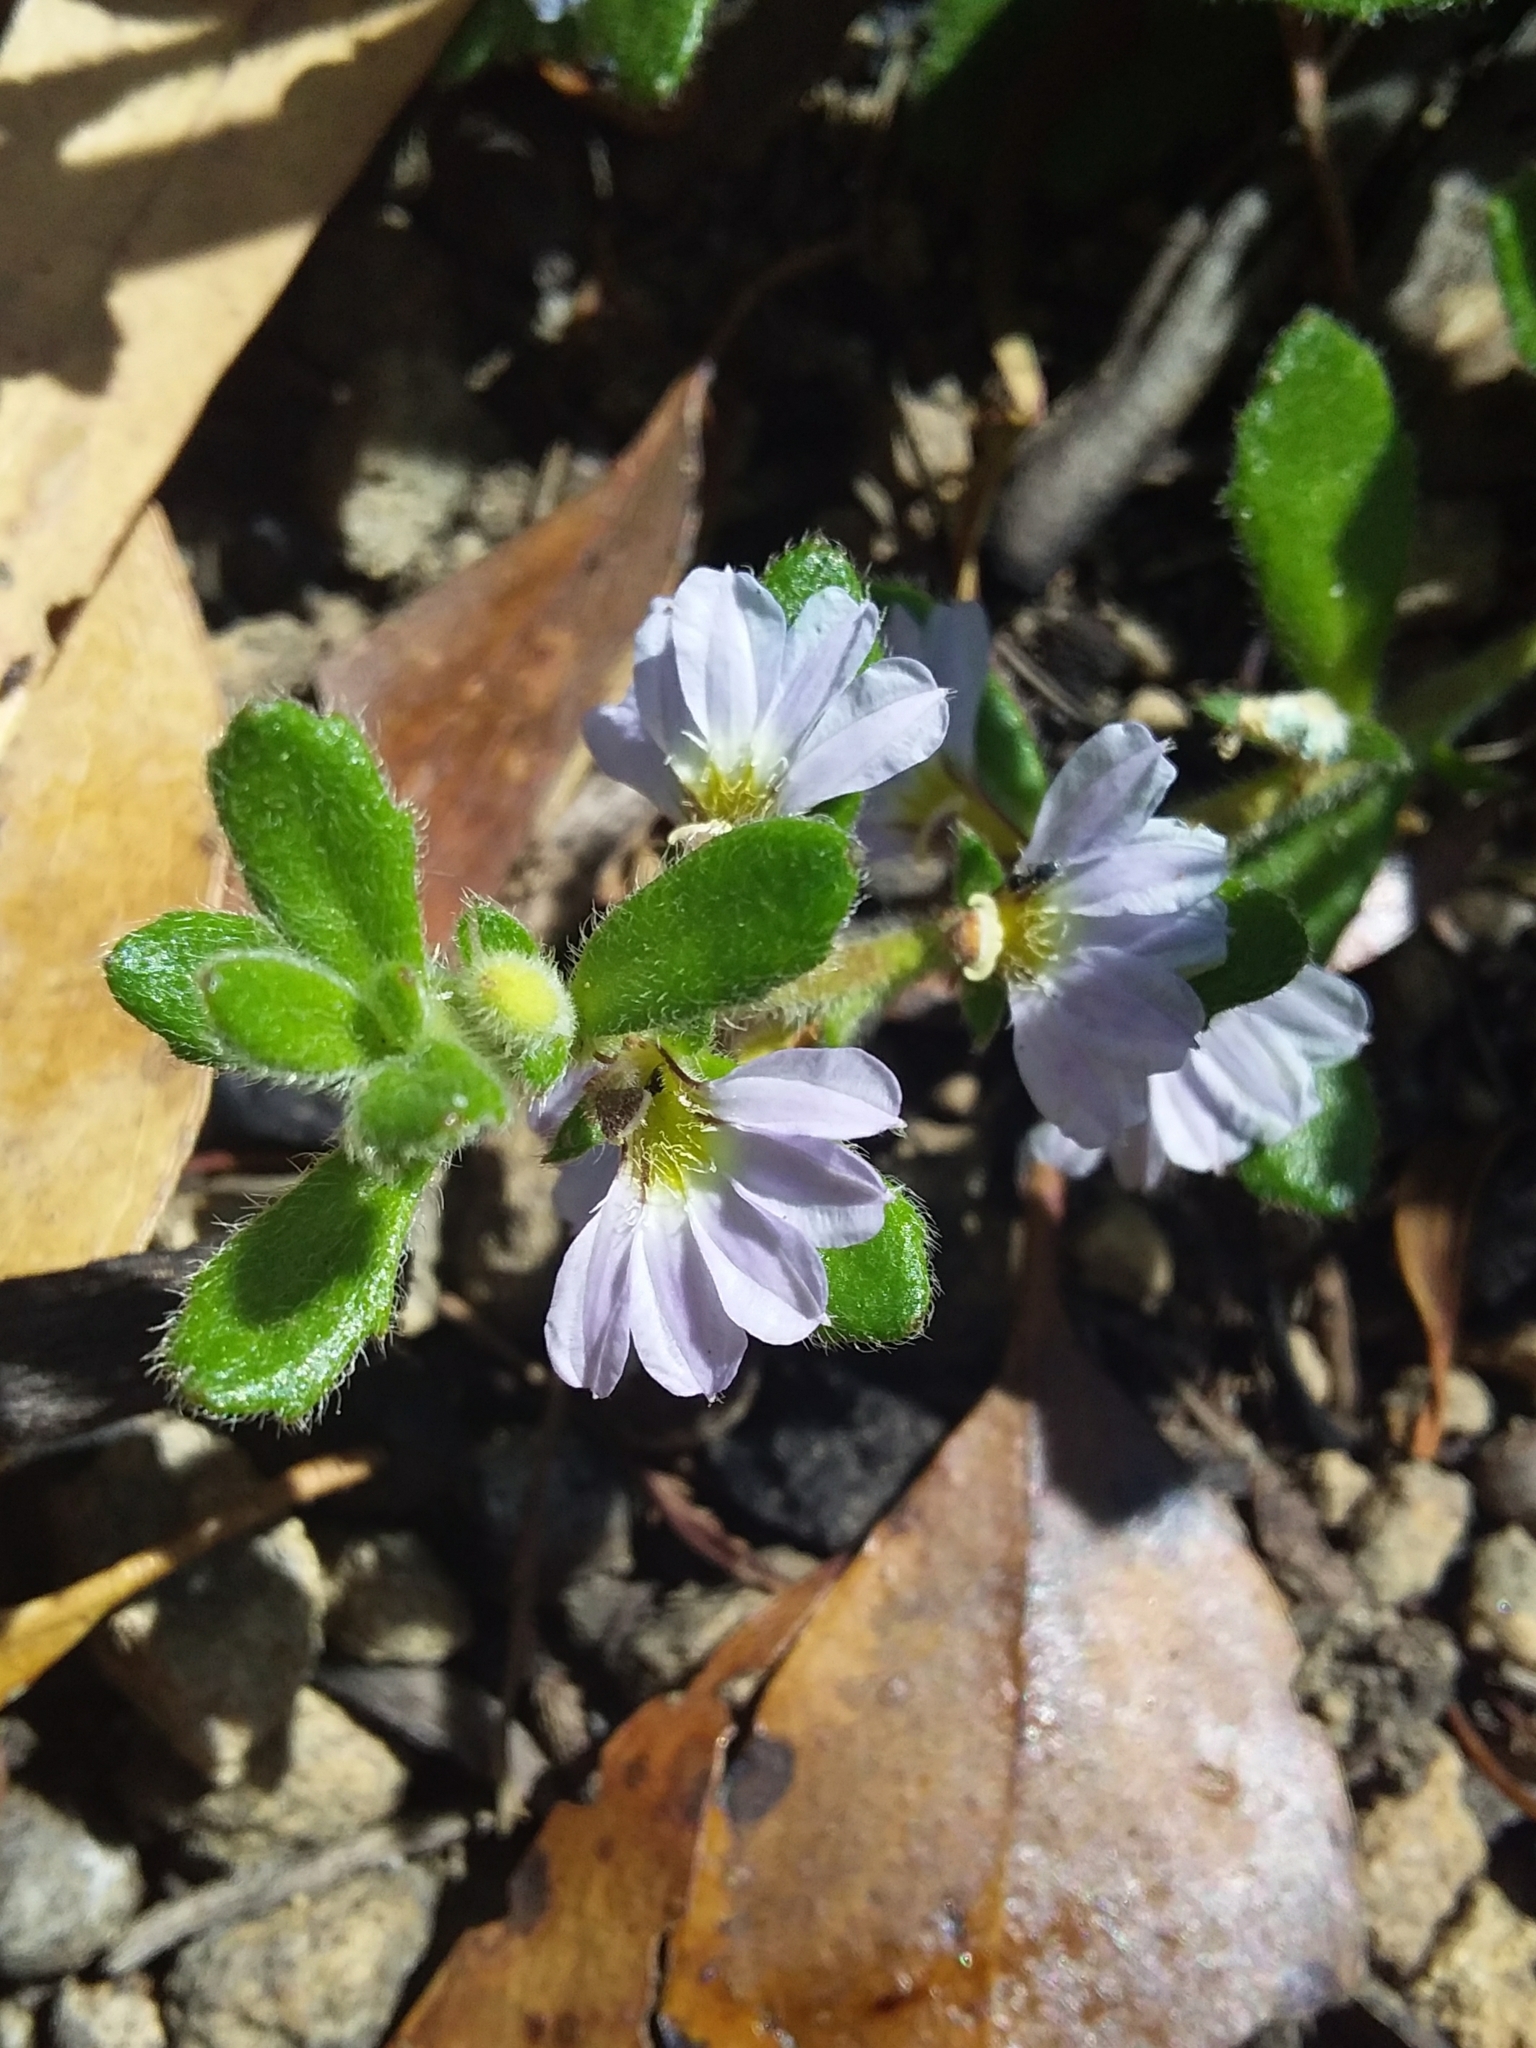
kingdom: Plantae
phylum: Tracheophyta
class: Magnoliopsida
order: Asterales
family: Goodeniaceae
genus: Scaevola
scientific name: Scaevola albida
